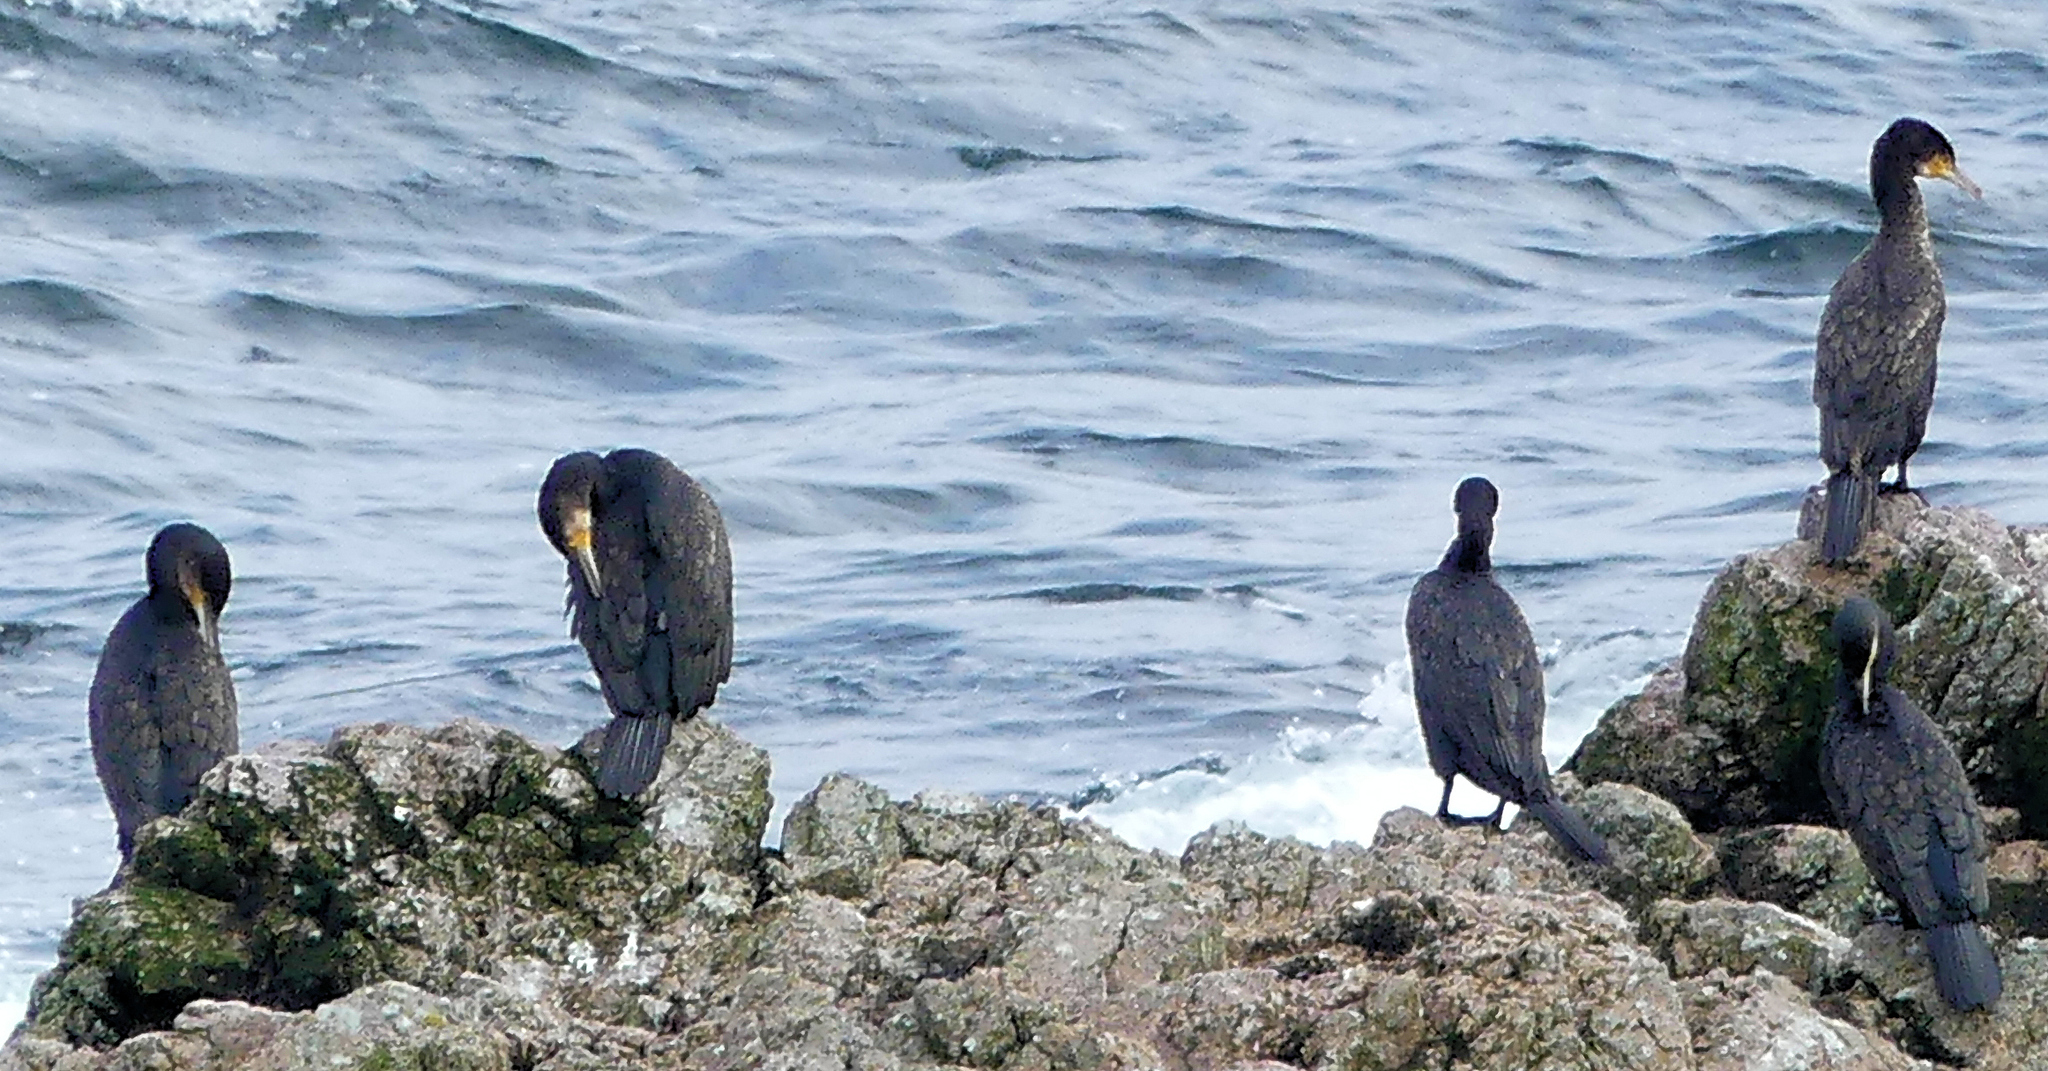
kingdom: Animalia
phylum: Chordata
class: Aves
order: Suliformes
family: Phalacrocoracidae
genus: Phalacrocorax
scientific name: Phalacrocorax carbo
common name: Great cormorant
